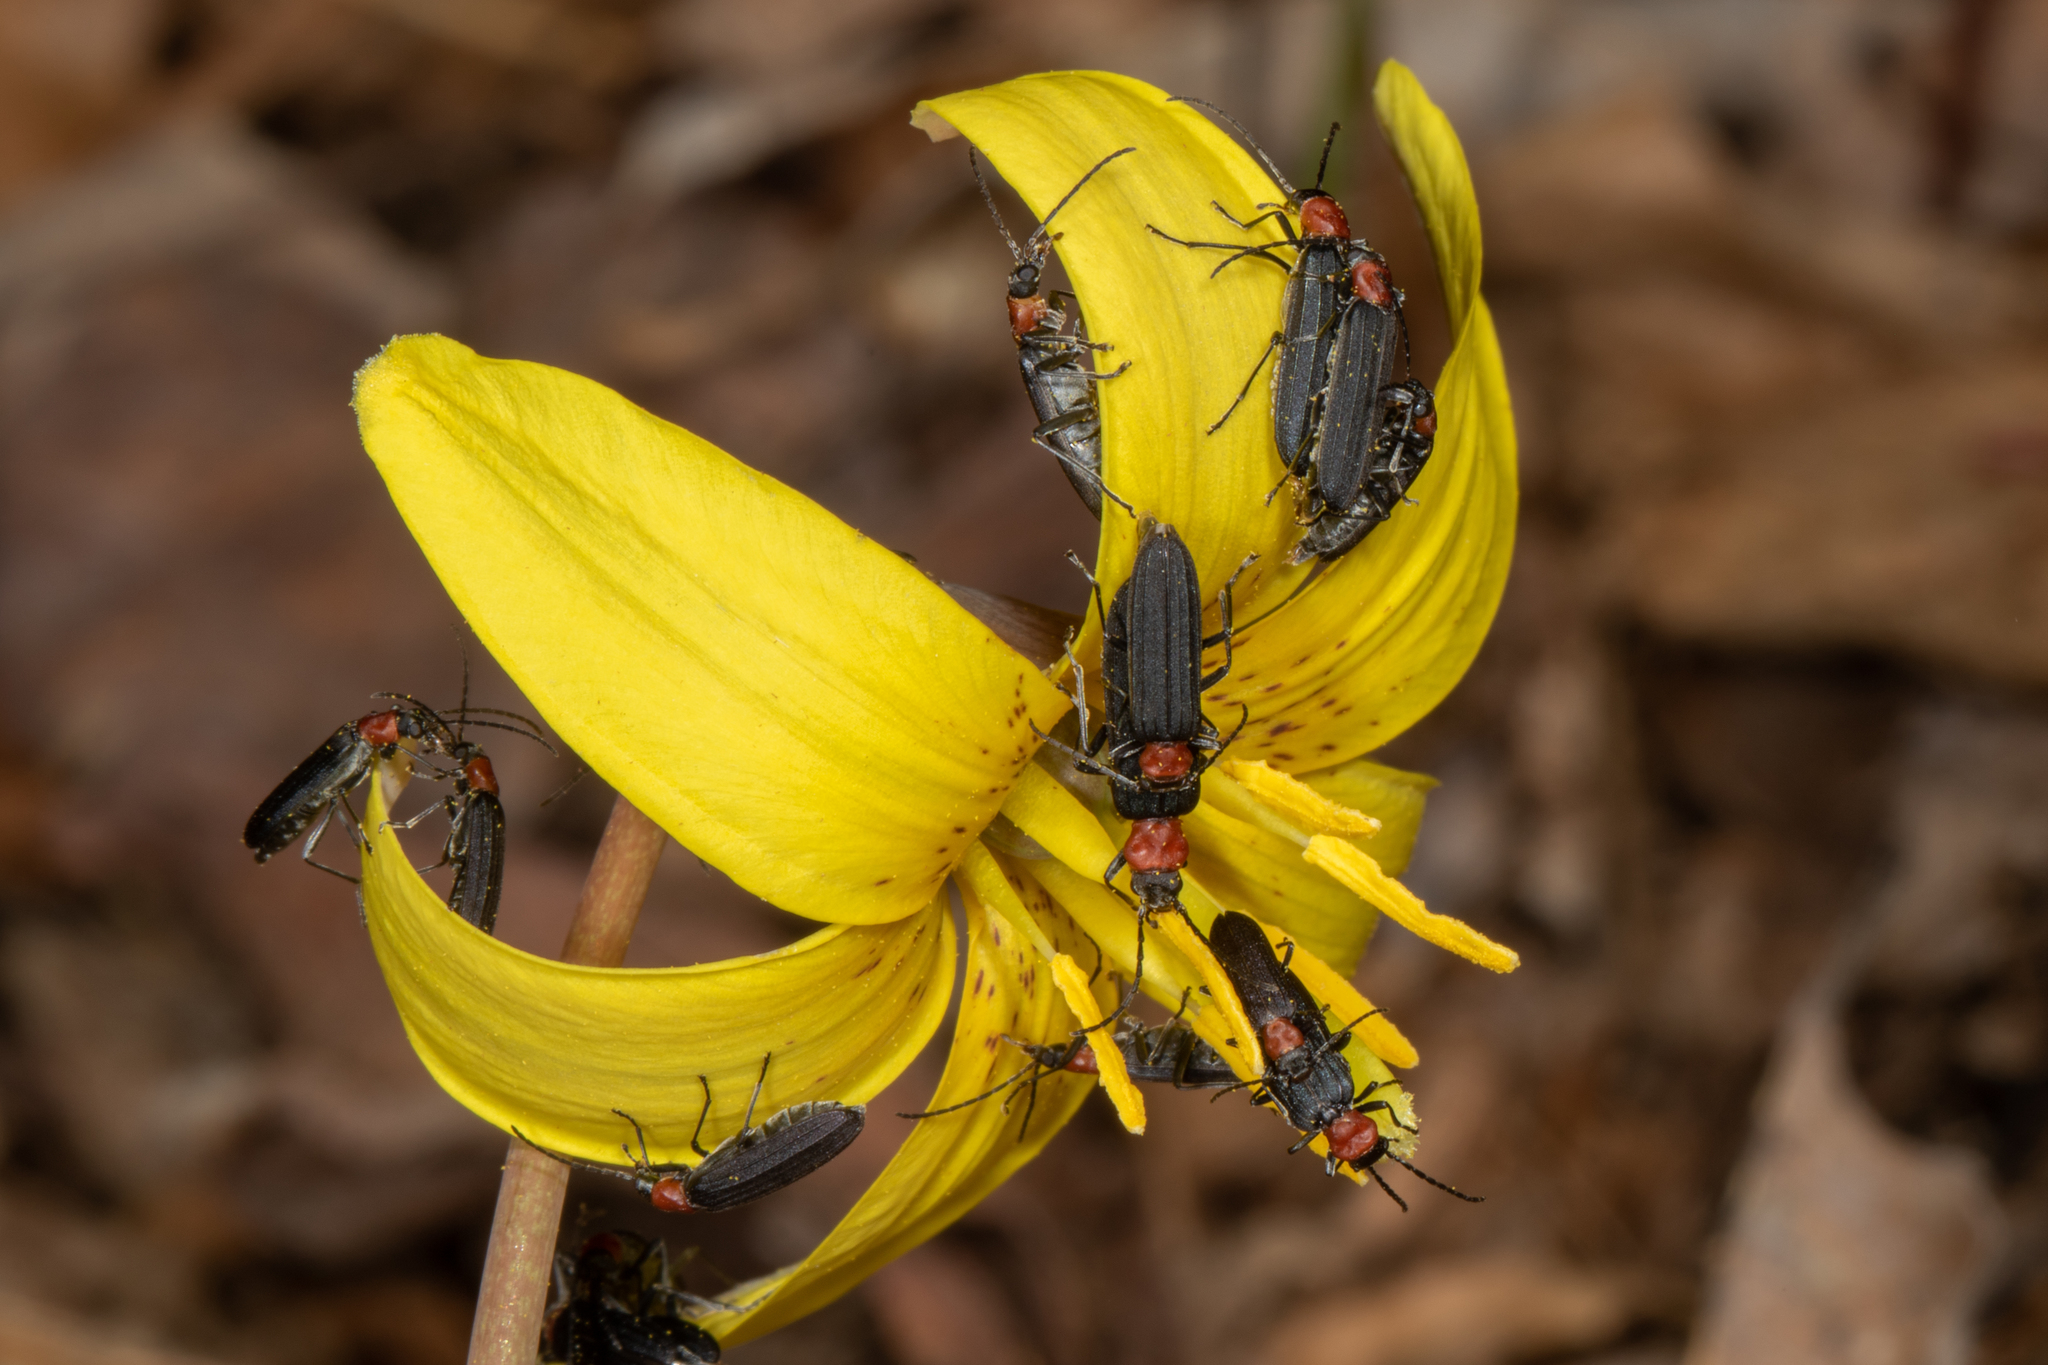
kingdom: Animalia
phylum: Arthropoda
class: Insecta
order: Coleoptera
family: Oedemeridae
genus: Ischnomera
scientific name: Ischnomera
